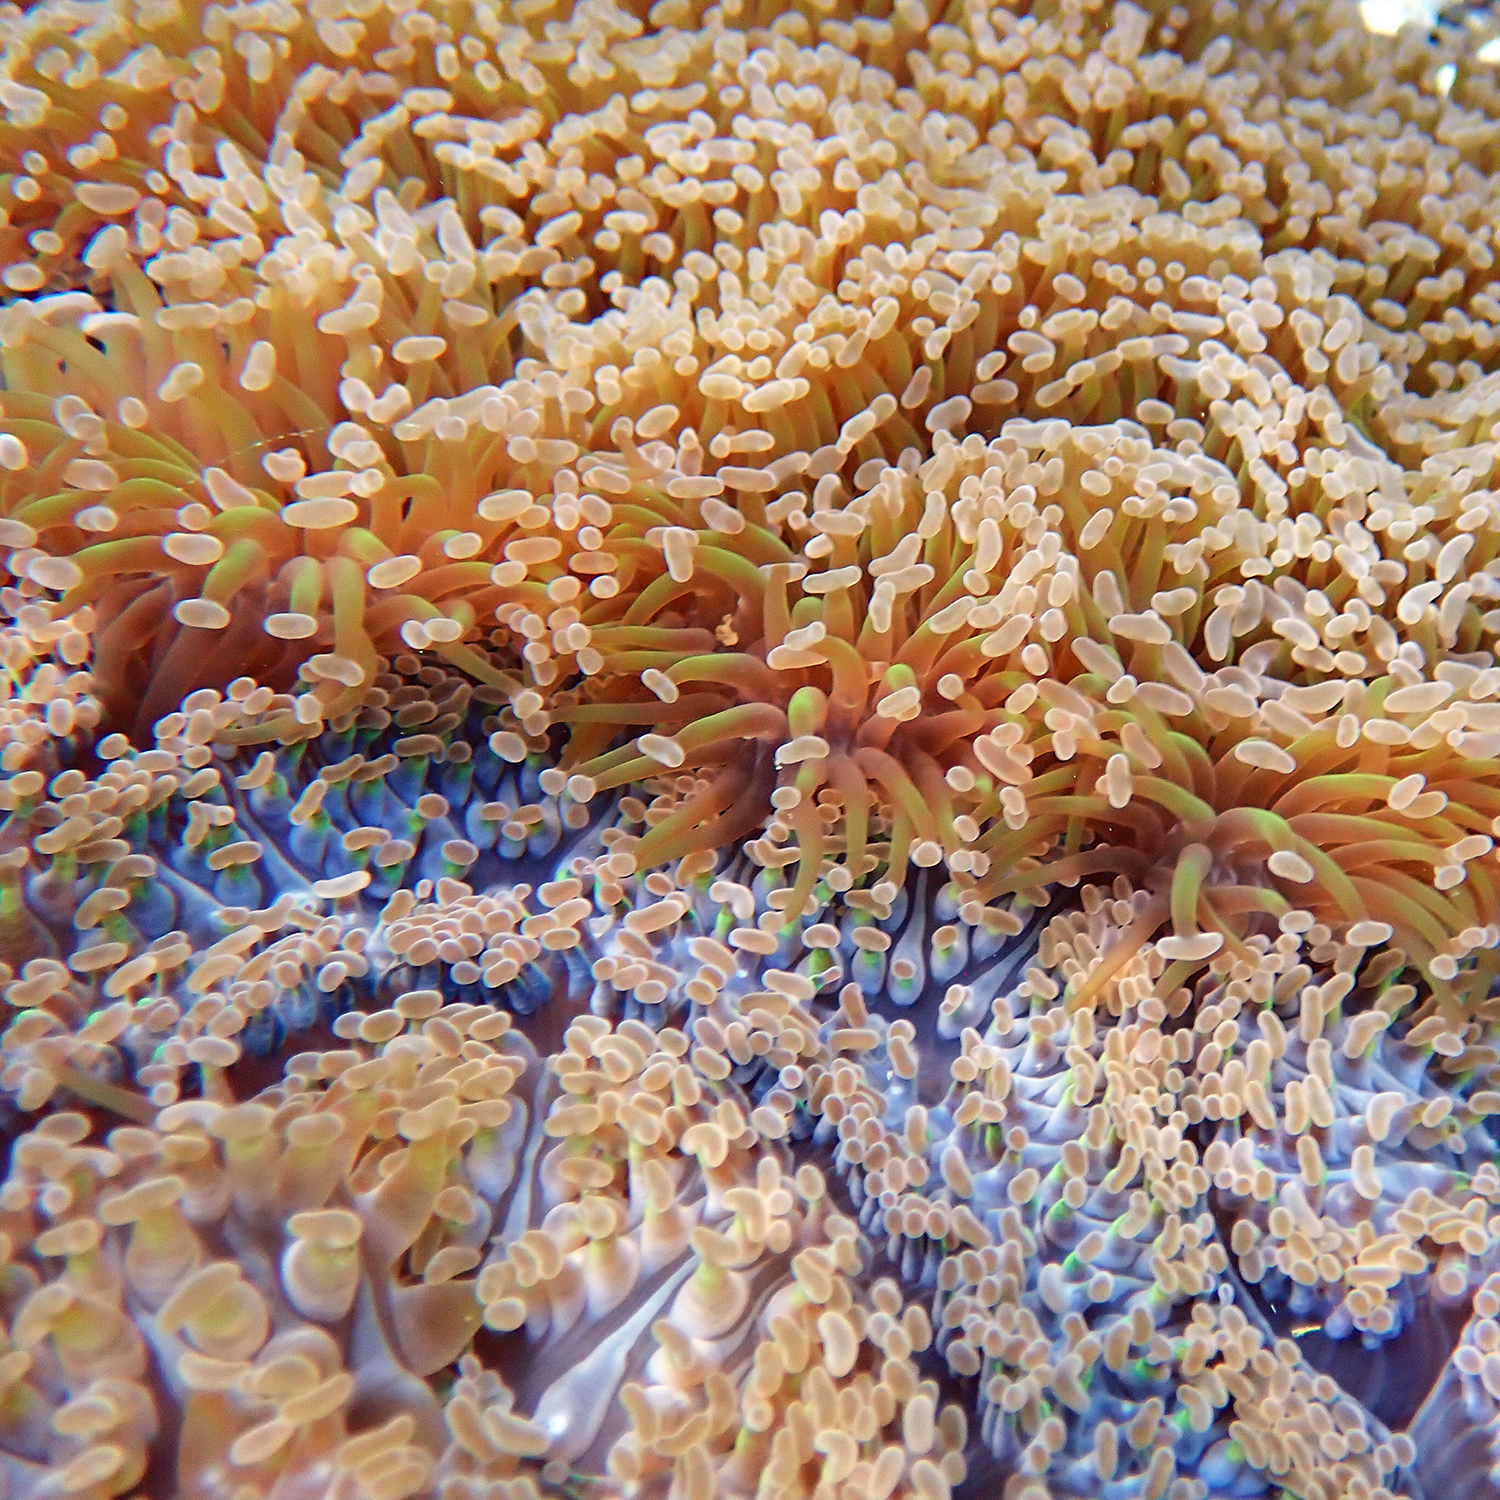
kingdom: Animalia
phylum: Cnidaria
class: Anthozoa
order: Scleractinia
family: Euphylliidae
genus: Fimbriaphyllia
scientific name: Fimbriaphyllia ancora
